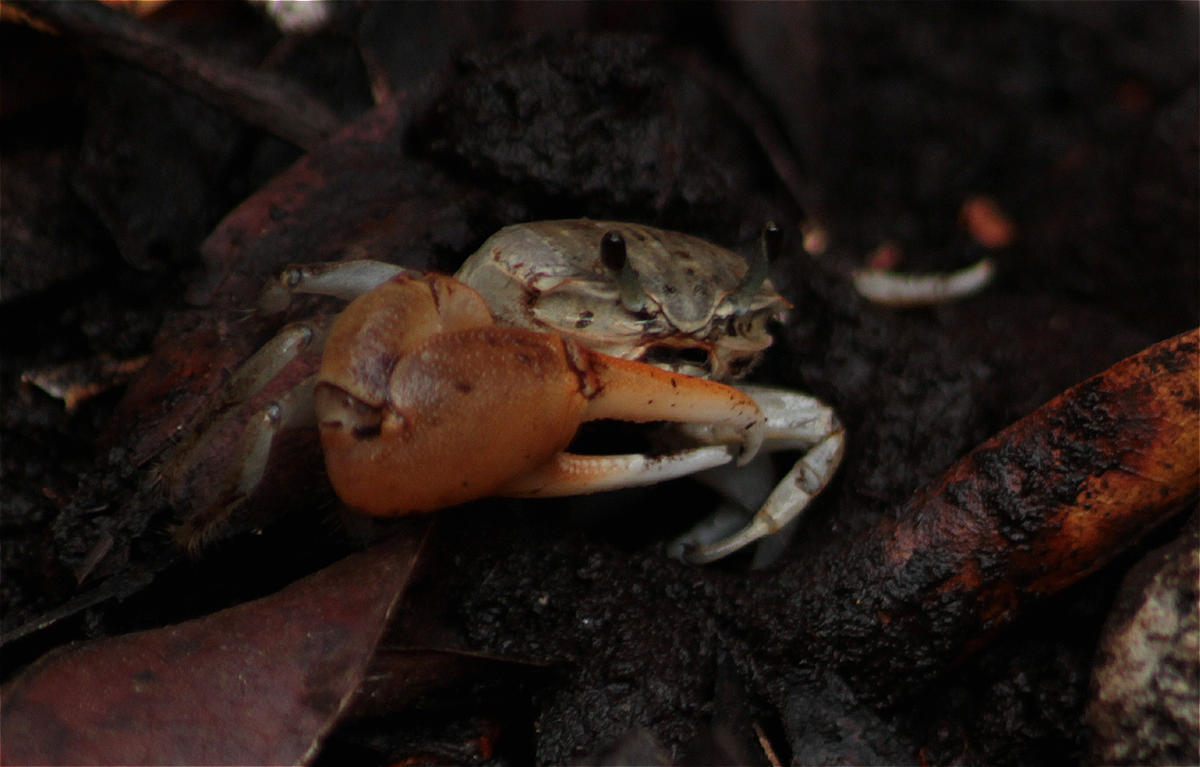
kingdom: Animalia
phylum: Arthropoda
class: Malacostraca
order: Decapoda
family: Ocypodidae
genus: Minuca
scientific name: Minuca galapagensis
